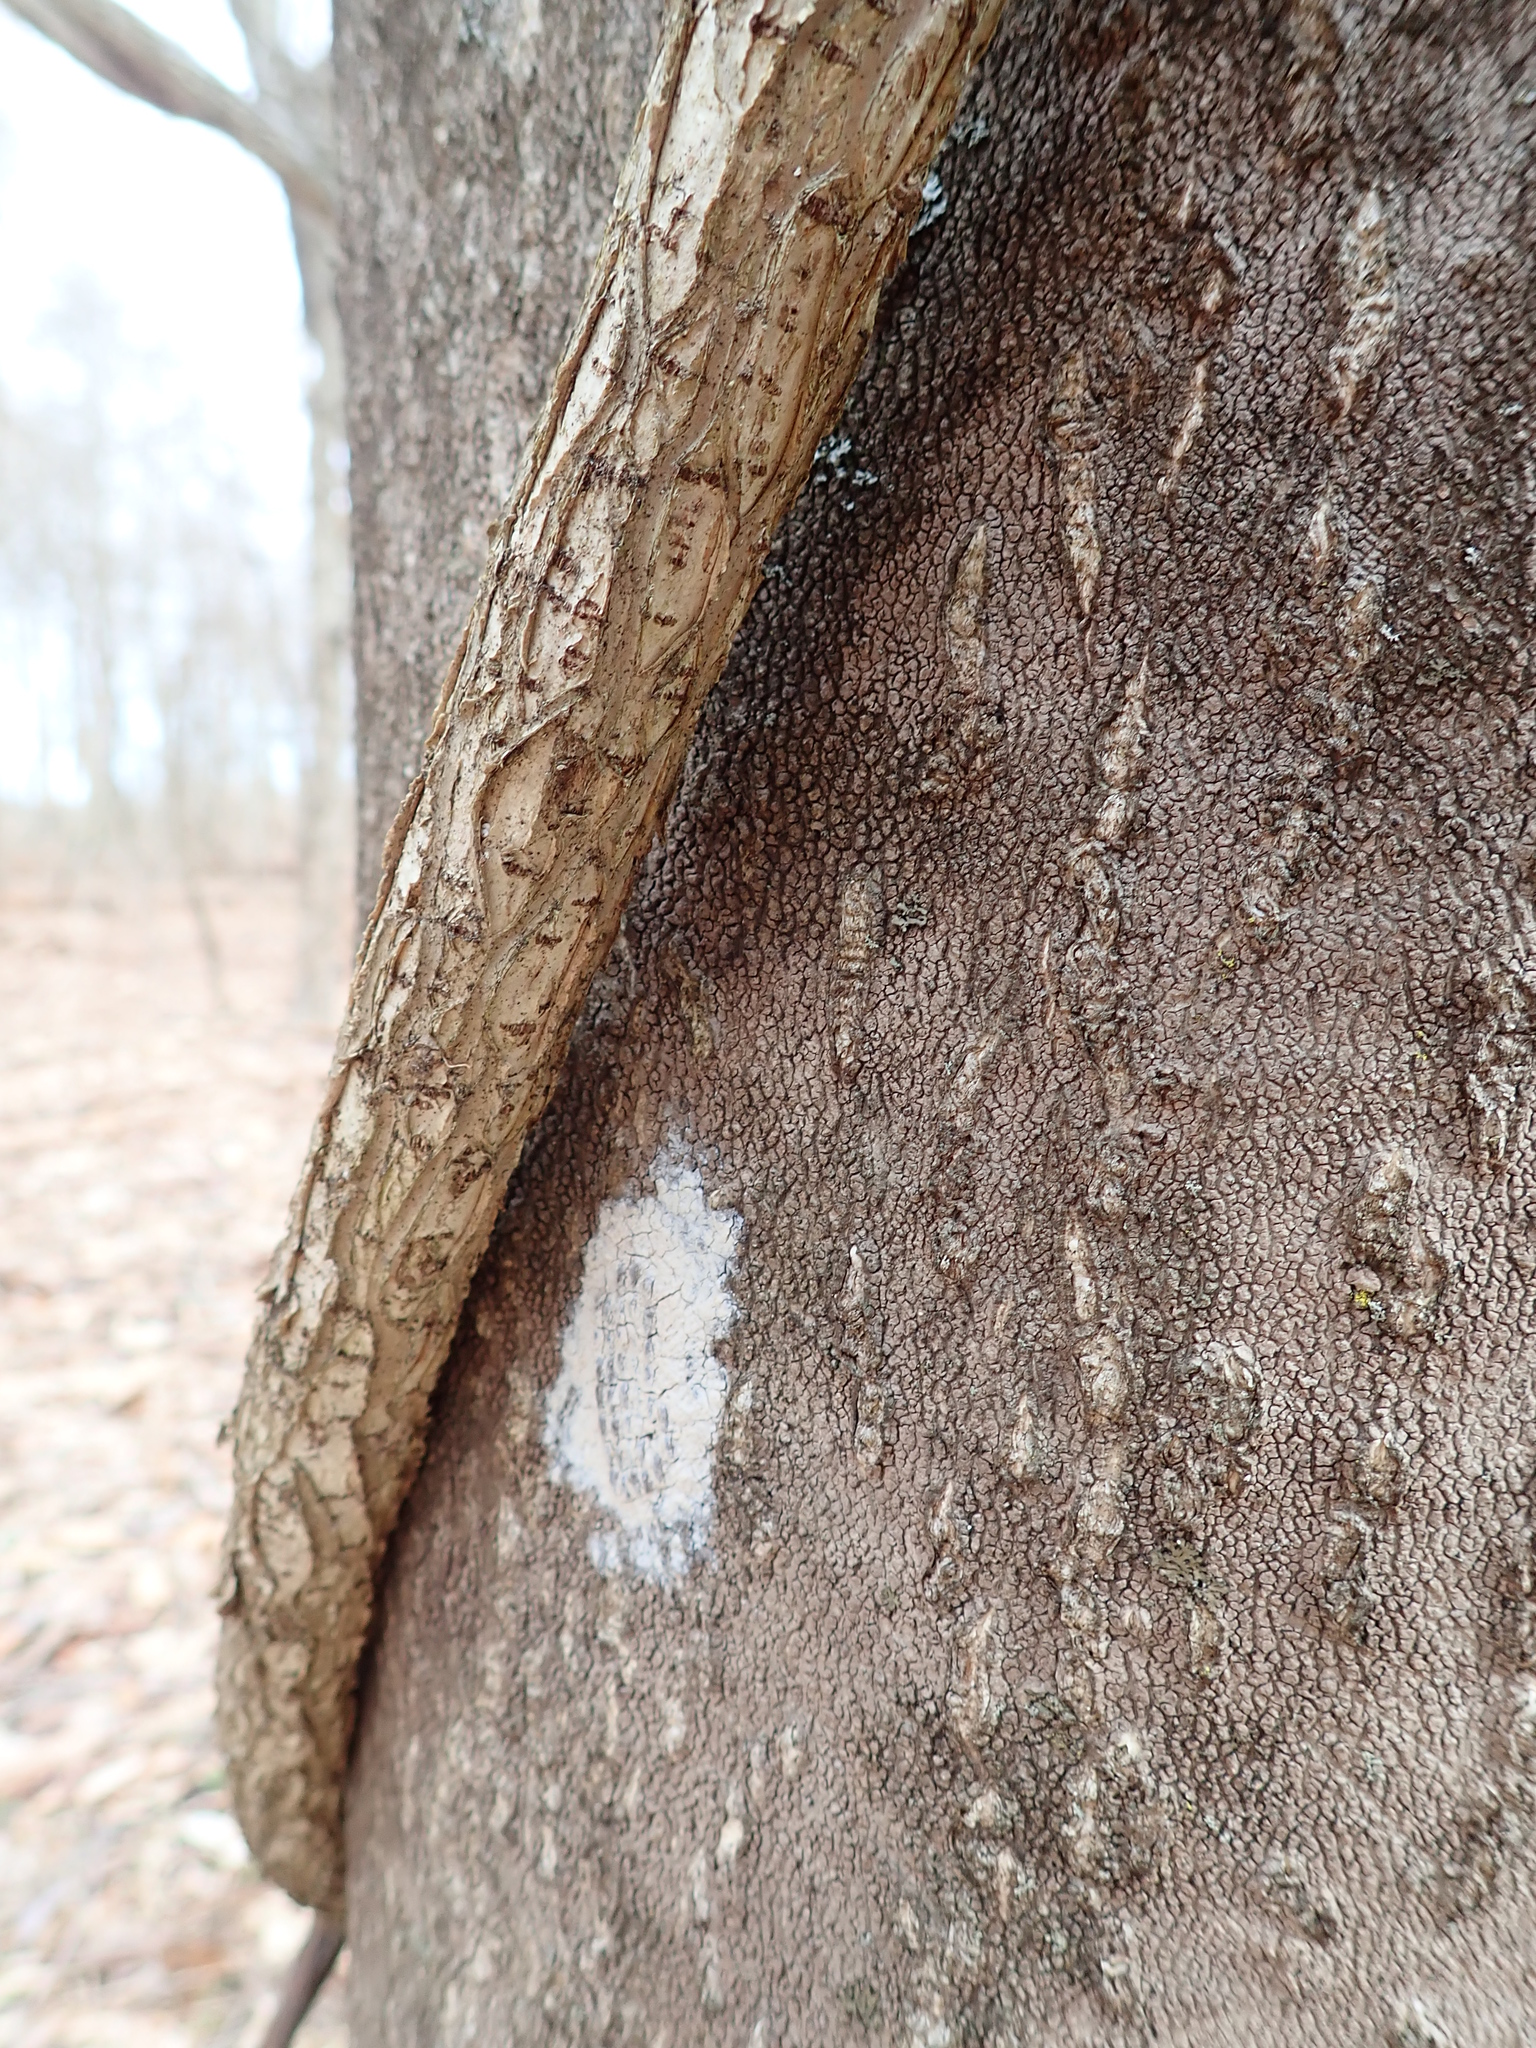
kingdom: Animalia
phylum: Arthropoda
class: Insecta
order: Hemiptera
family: Fulgoridae
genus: Lycorma
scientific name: Lycorma delicatula
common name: Spotted lanternfly
